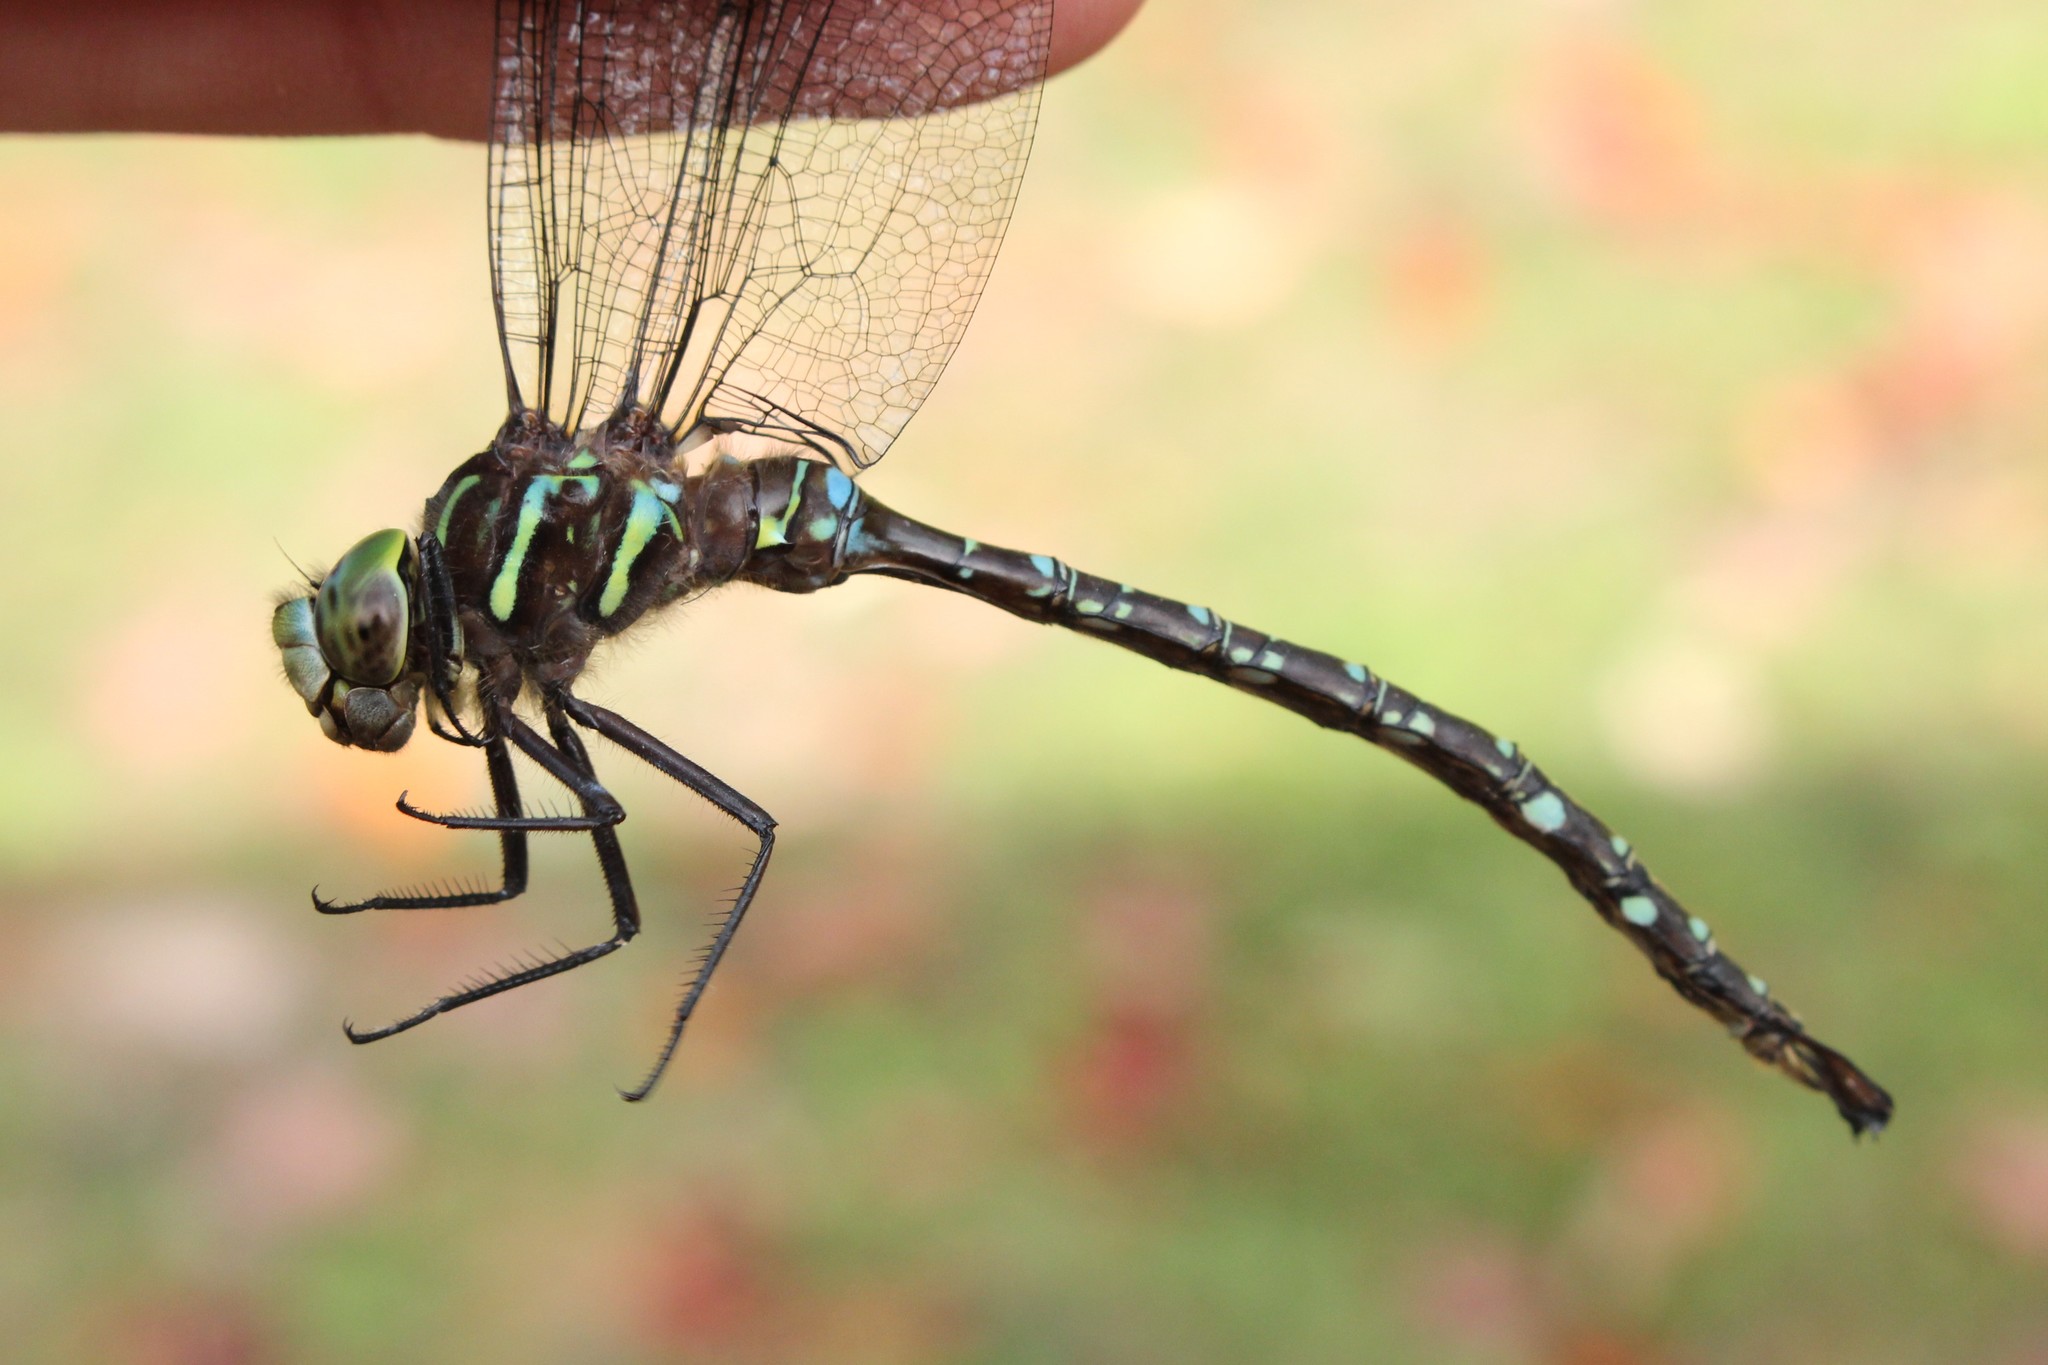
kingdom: Animalia
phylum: Arthropoda
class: Insecta
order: Odonata
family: Aeshnidae
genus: Aeshna
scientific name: Aeshna umbrosa
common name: Shadow darner
